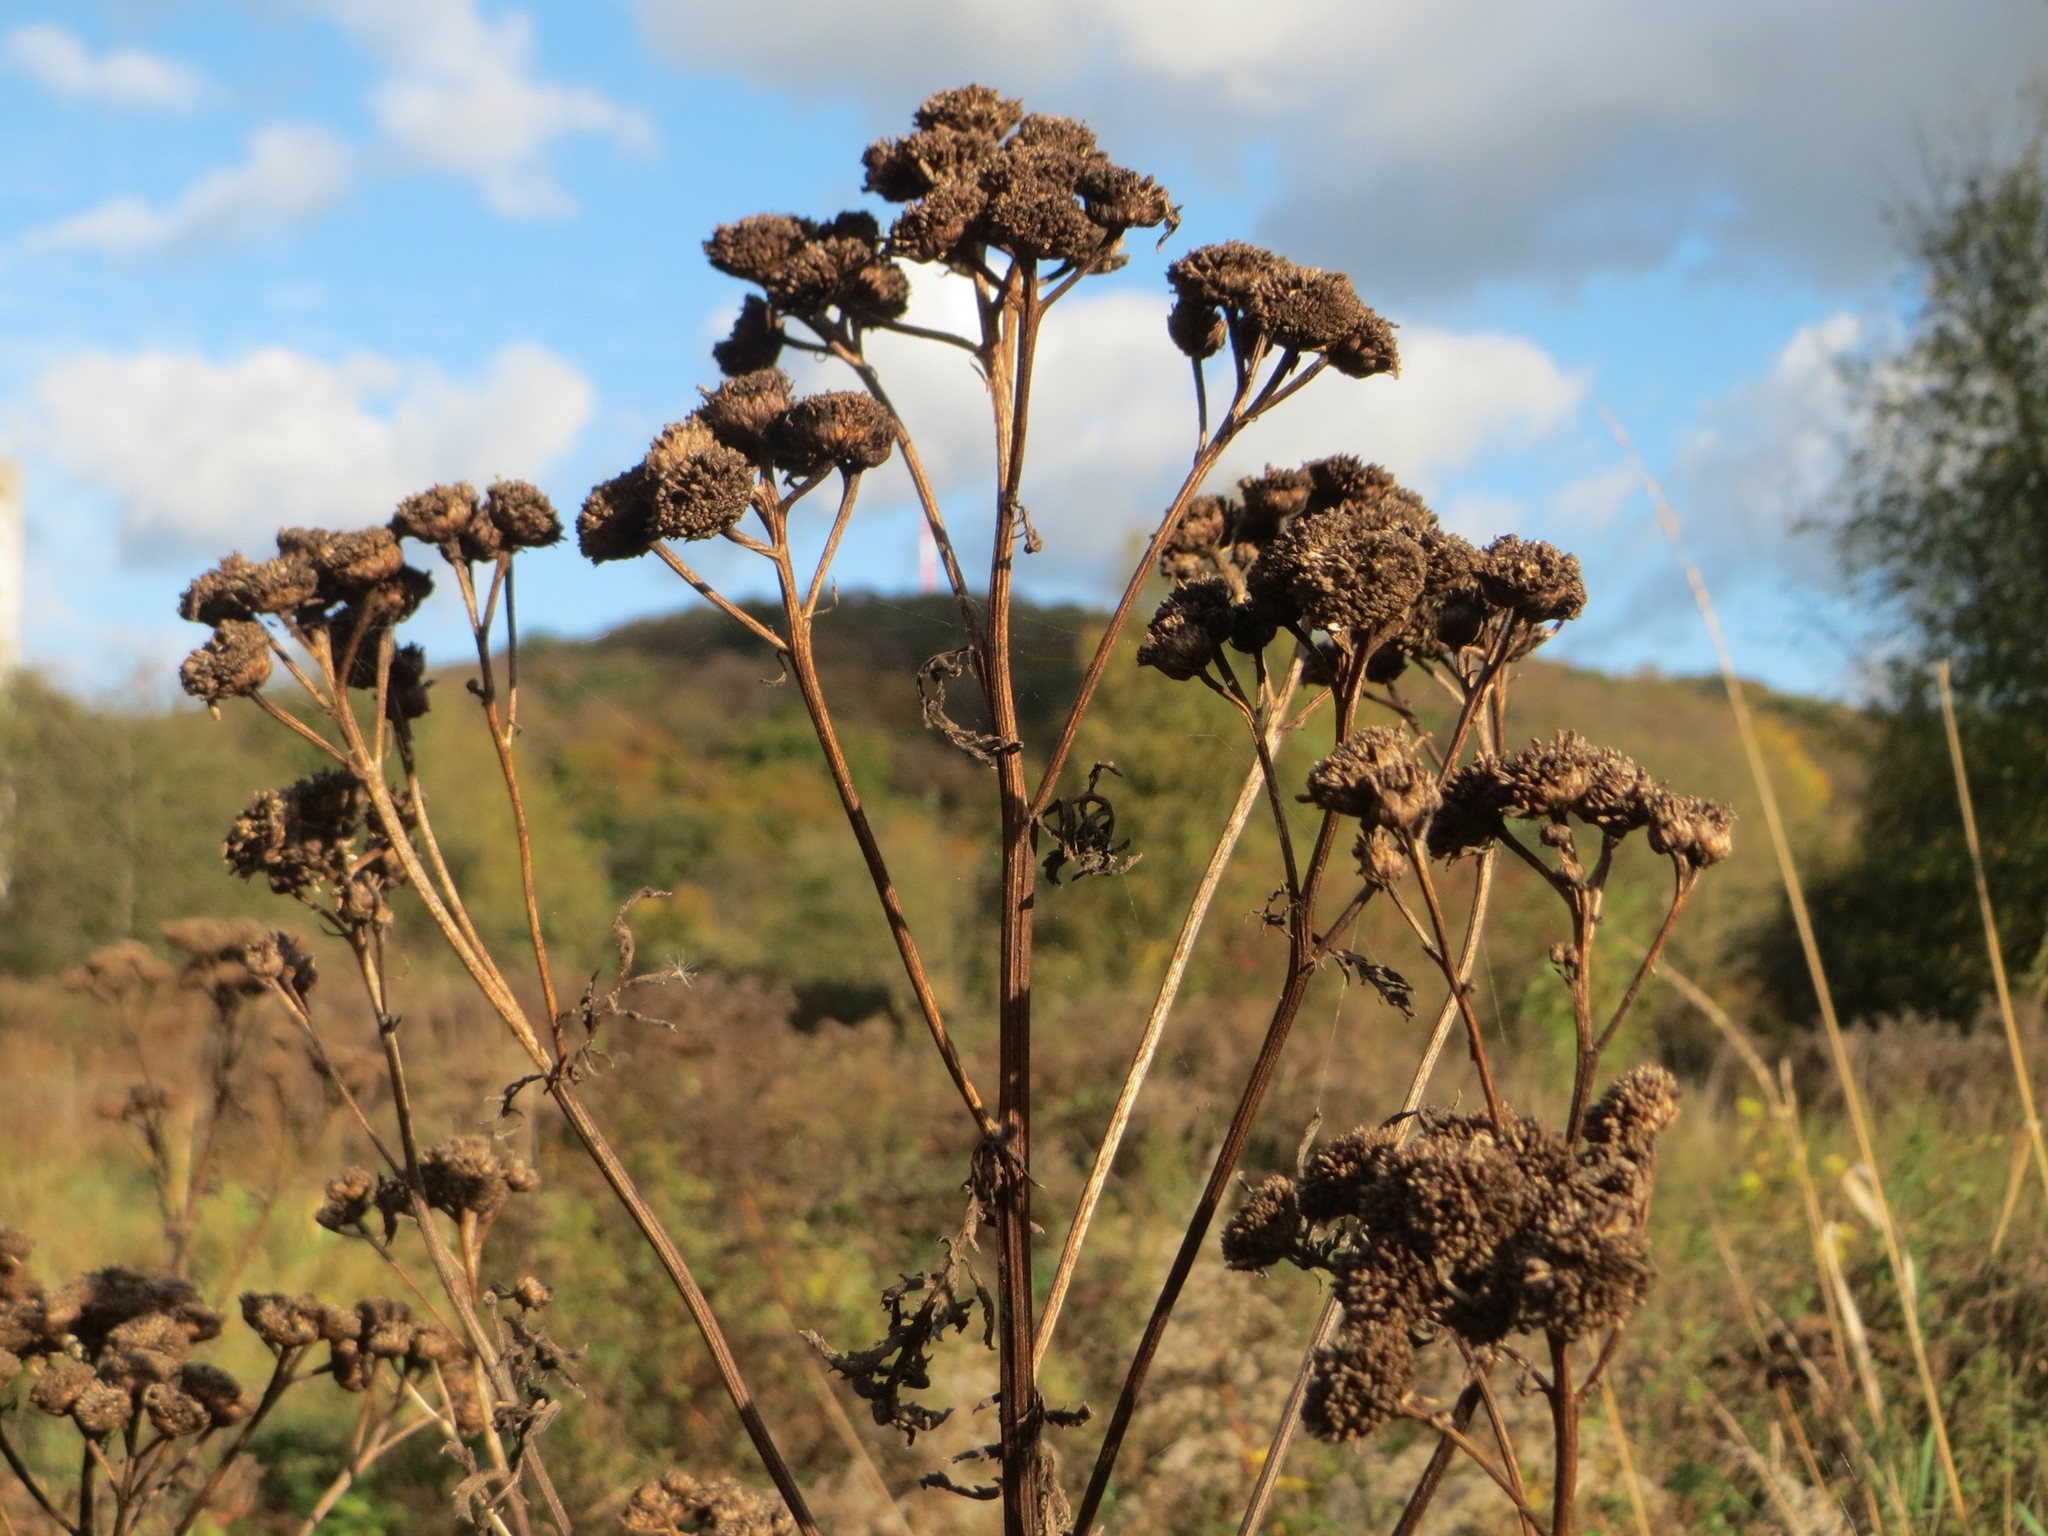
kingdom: Plantae
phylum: Tracheophyta
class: Magnoliopsida
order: Asterales
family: Asteraceae
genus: Tanacetum
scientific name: Tanacetum vulgare
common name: Common tansy
